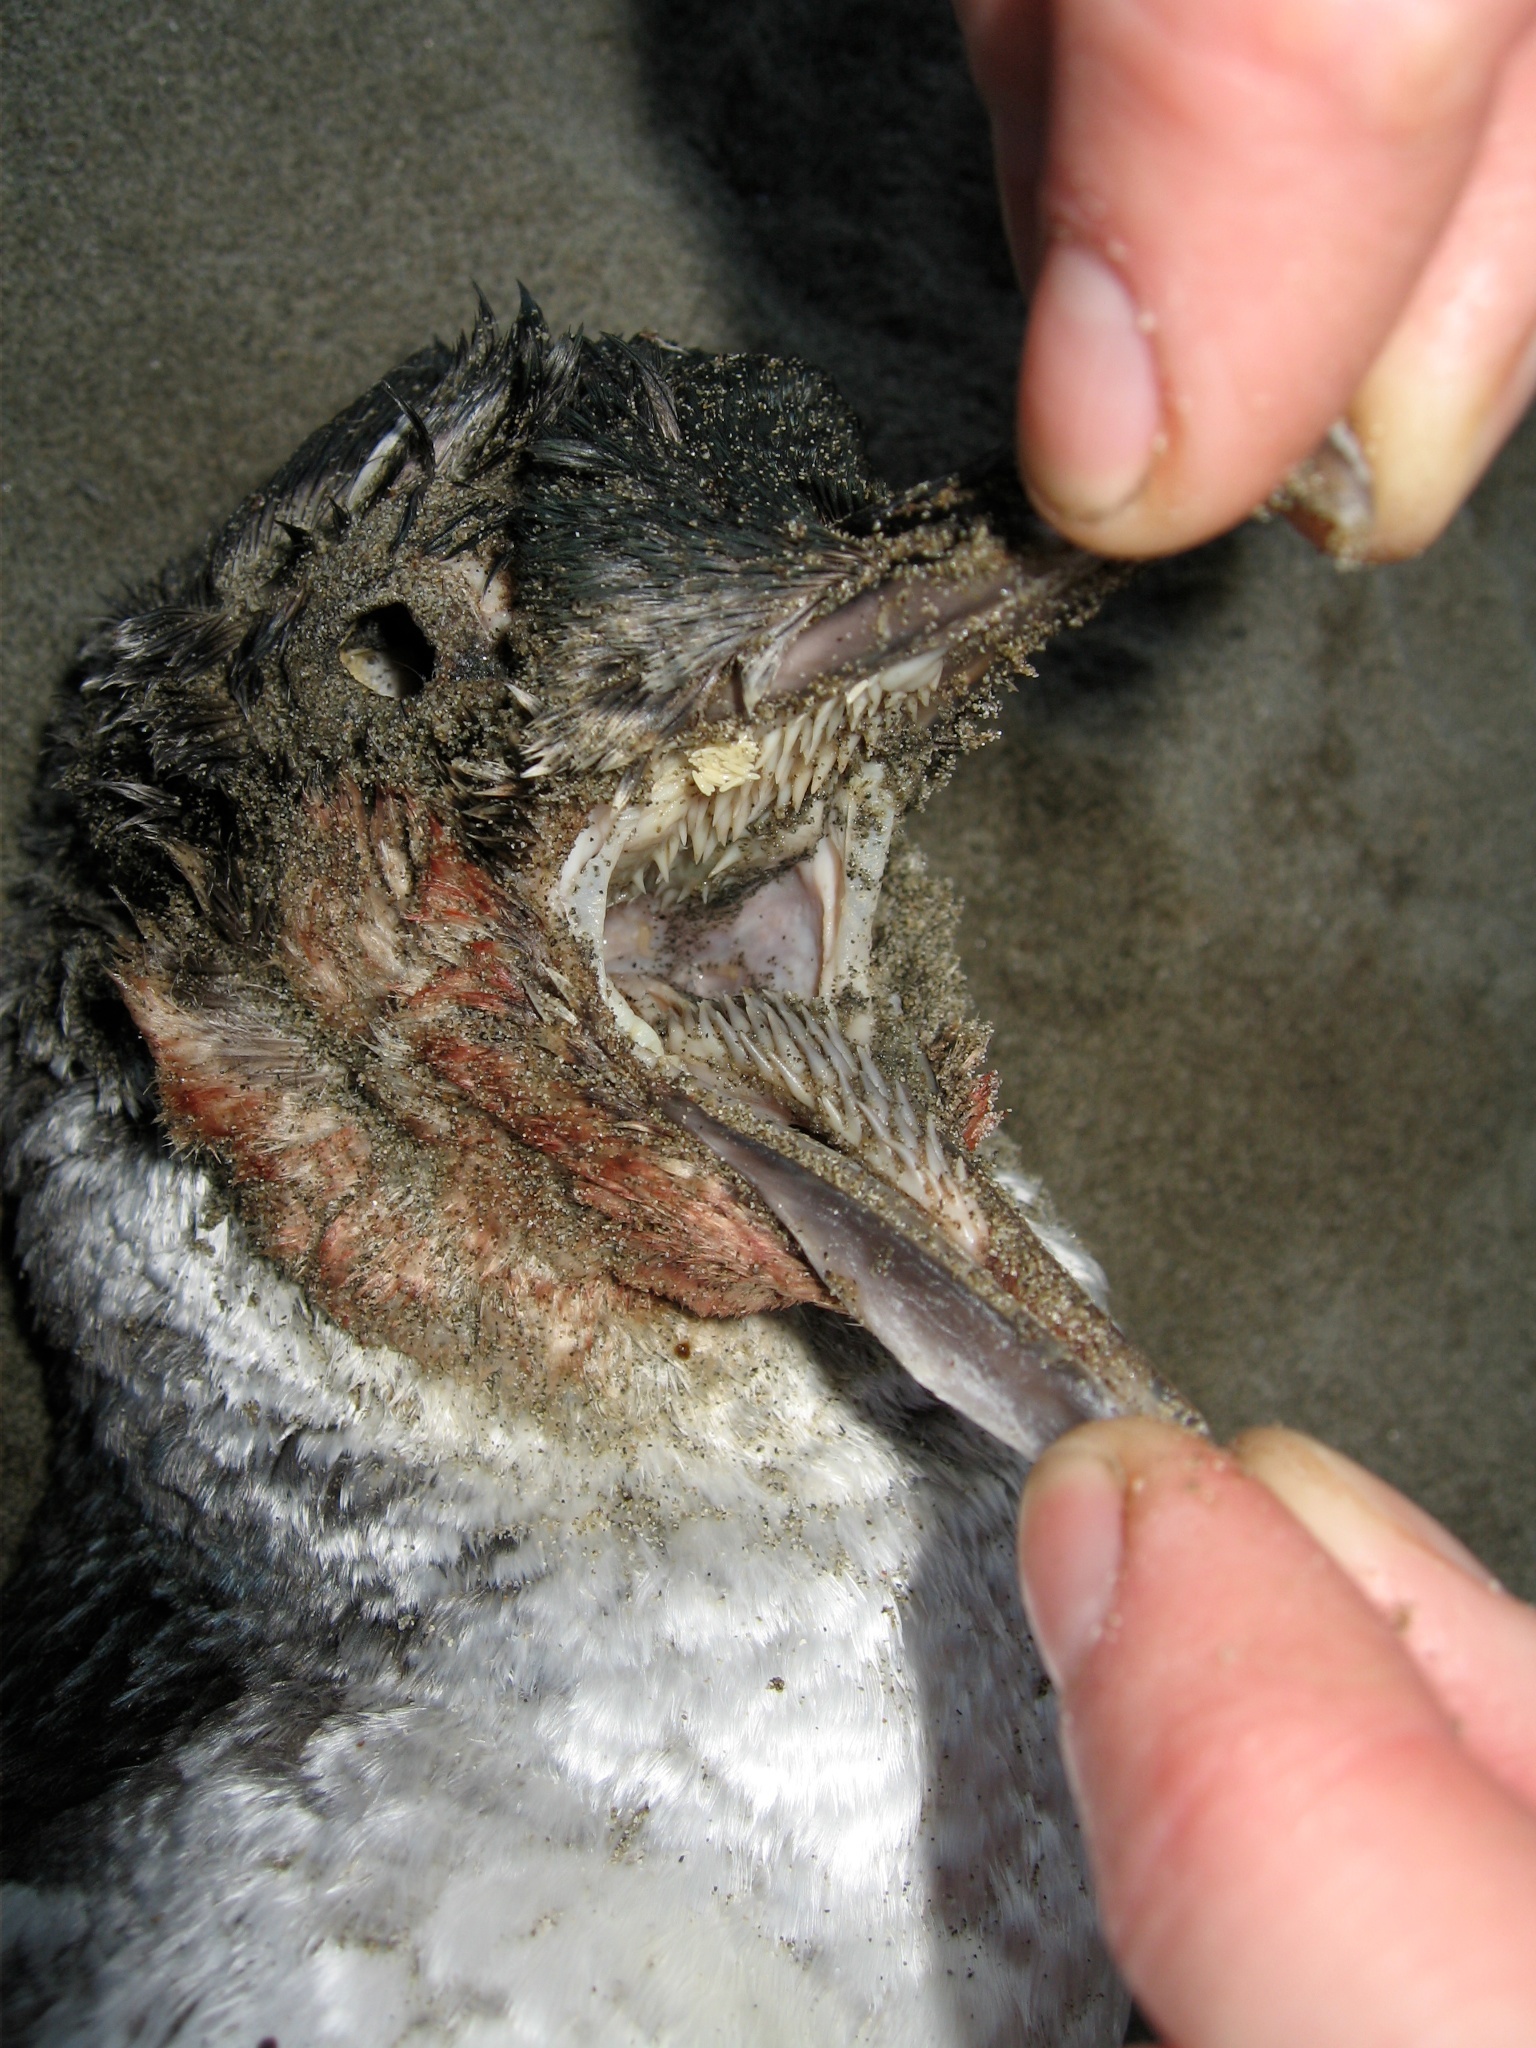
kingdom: Animalia
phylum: Chordata
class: Aves
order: Sphenisciformes
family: Spheniscidae
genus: Eudyptula
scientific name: Eudyptula minor
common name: Little penguin
